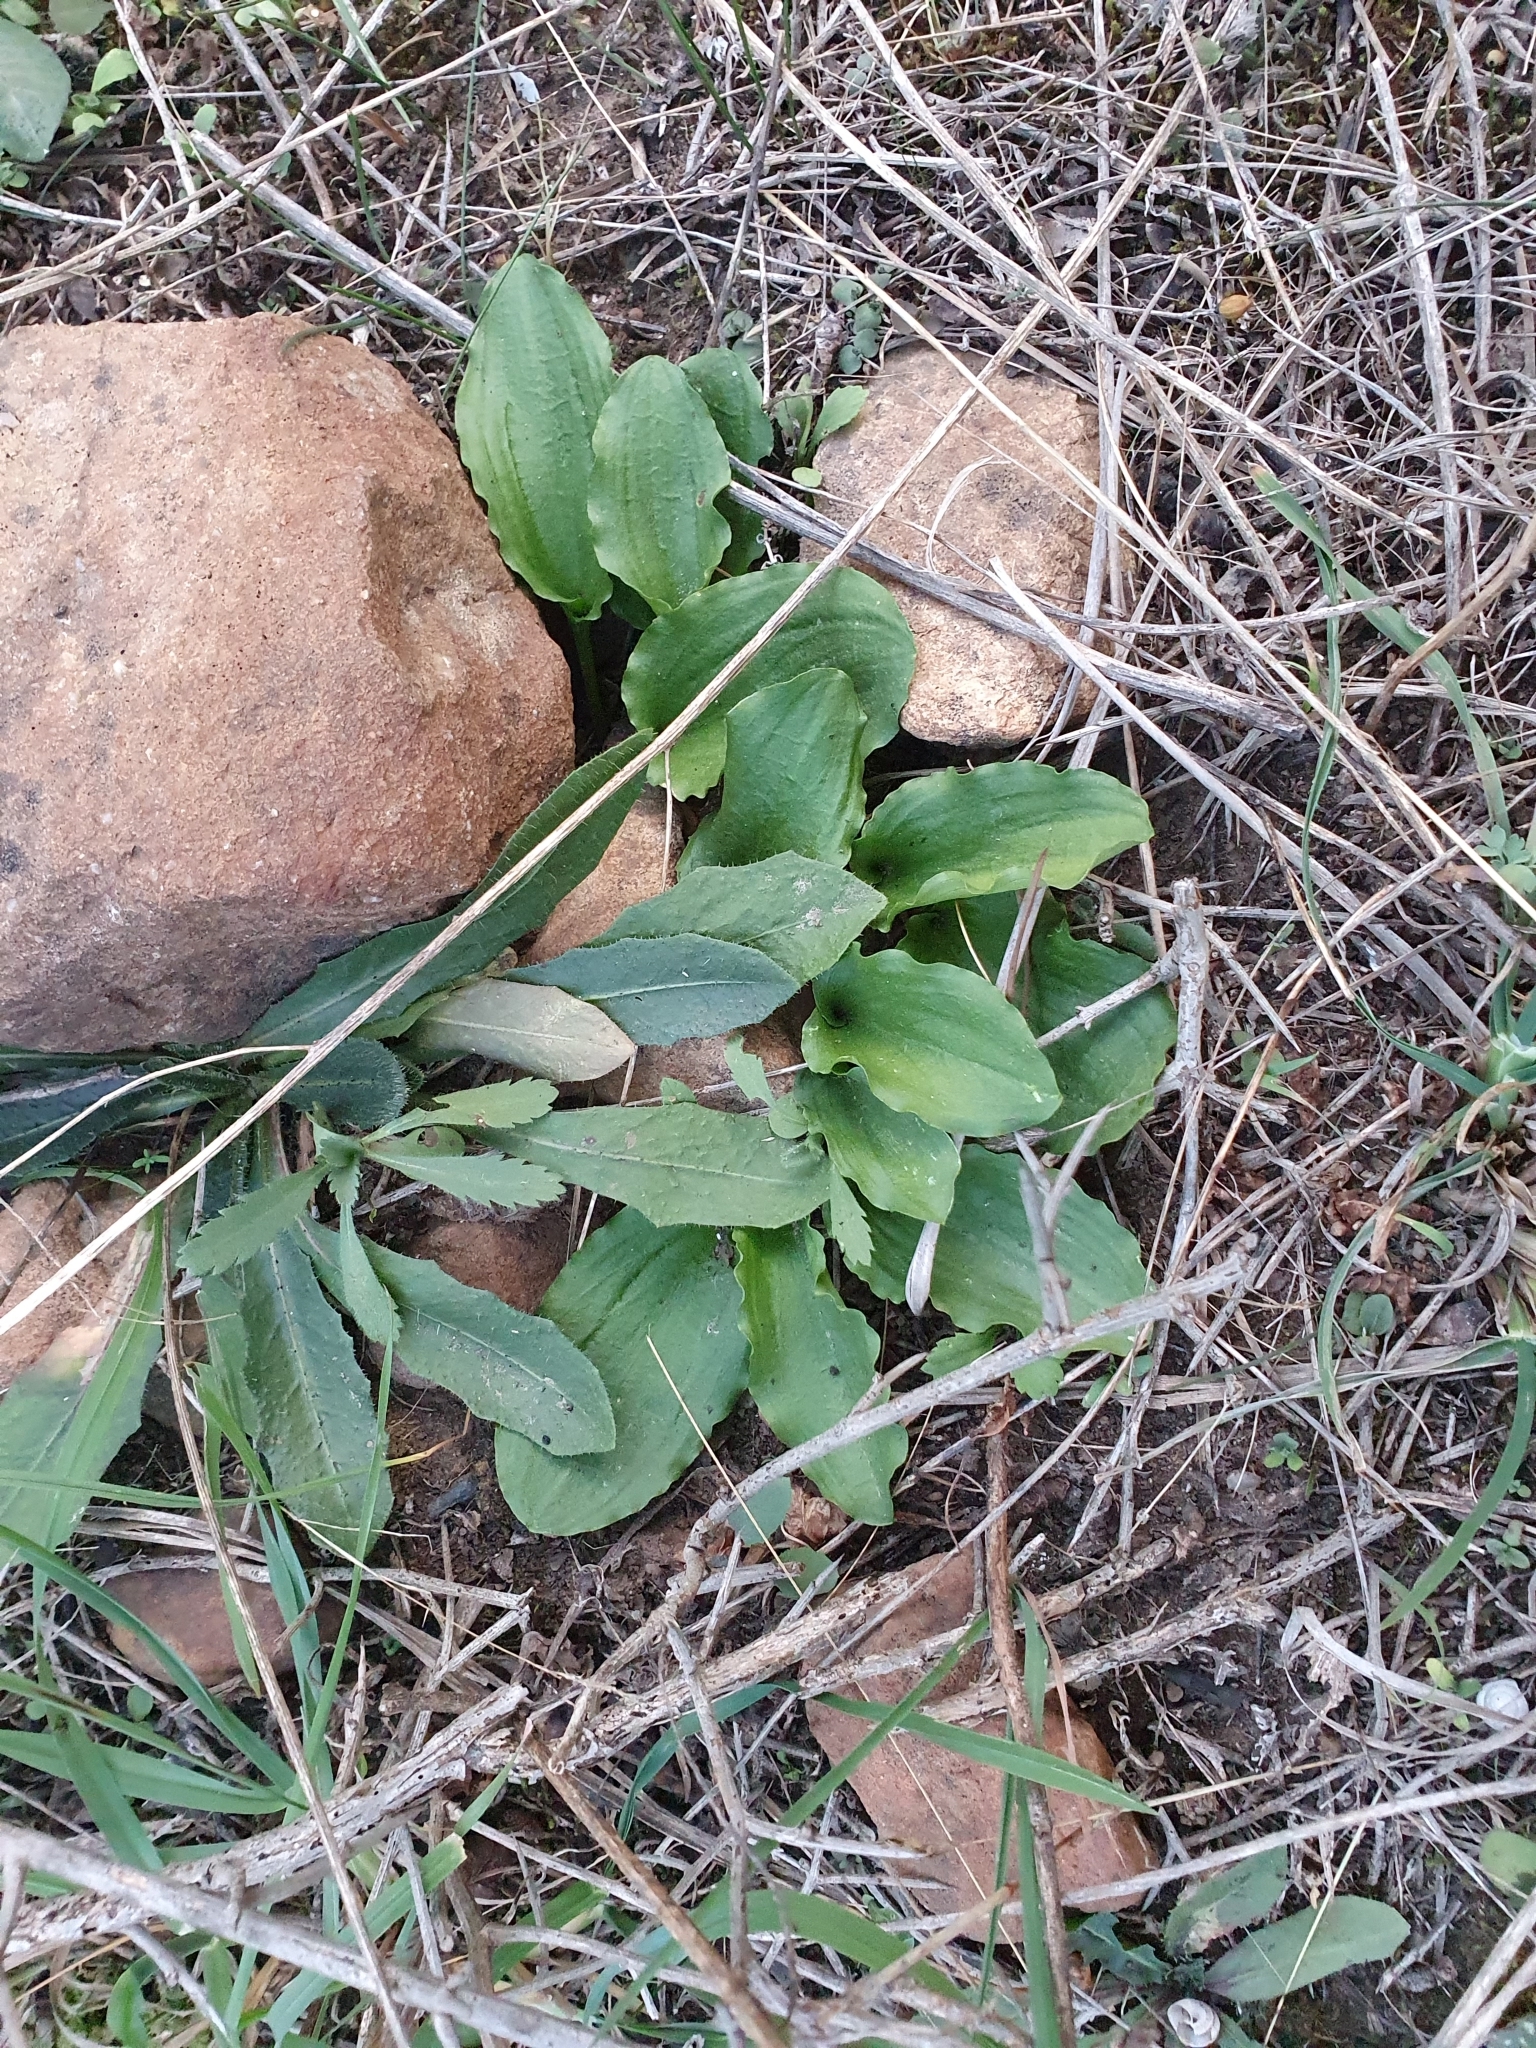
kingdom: Plantae
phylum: Tracheophyta
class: Liliopsida
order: Alismatales
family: Araceae
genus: Ambrosina
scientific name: Ambrosina bassii
